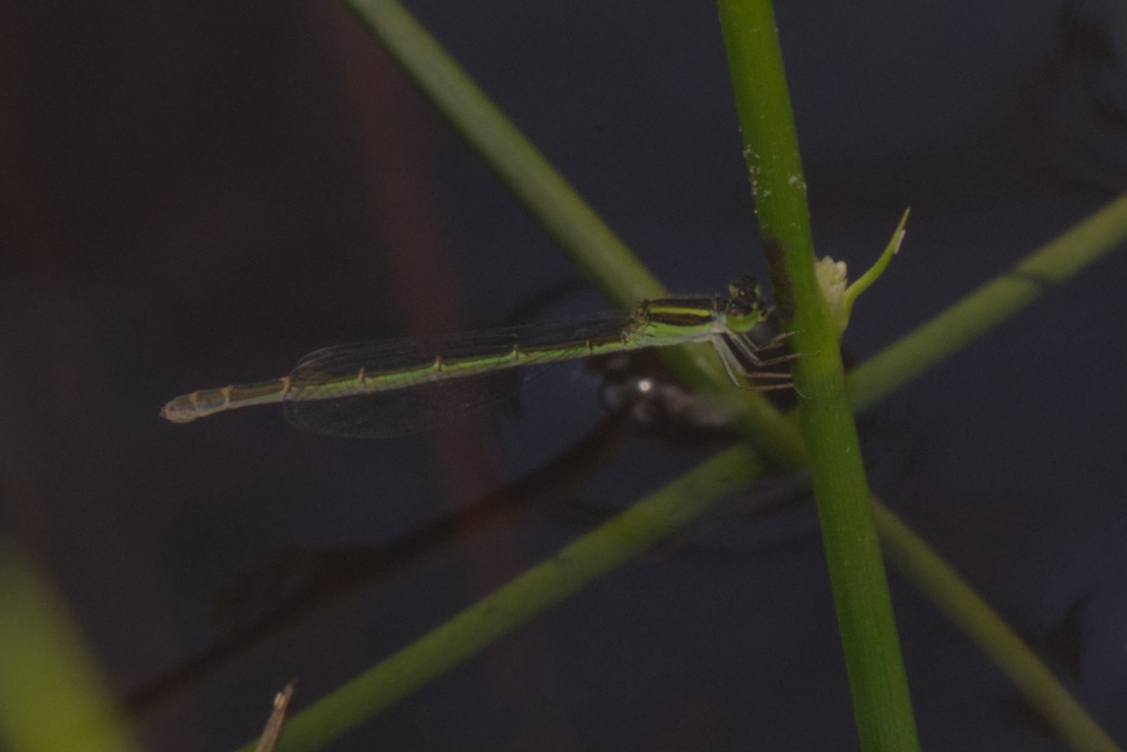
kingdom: Animalia
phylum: Arthropoda
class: Insecta
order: Odonata
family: Coenagrionidae
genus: Ischnura
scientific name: Ischnura aurora
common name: Gossamer damselfly
